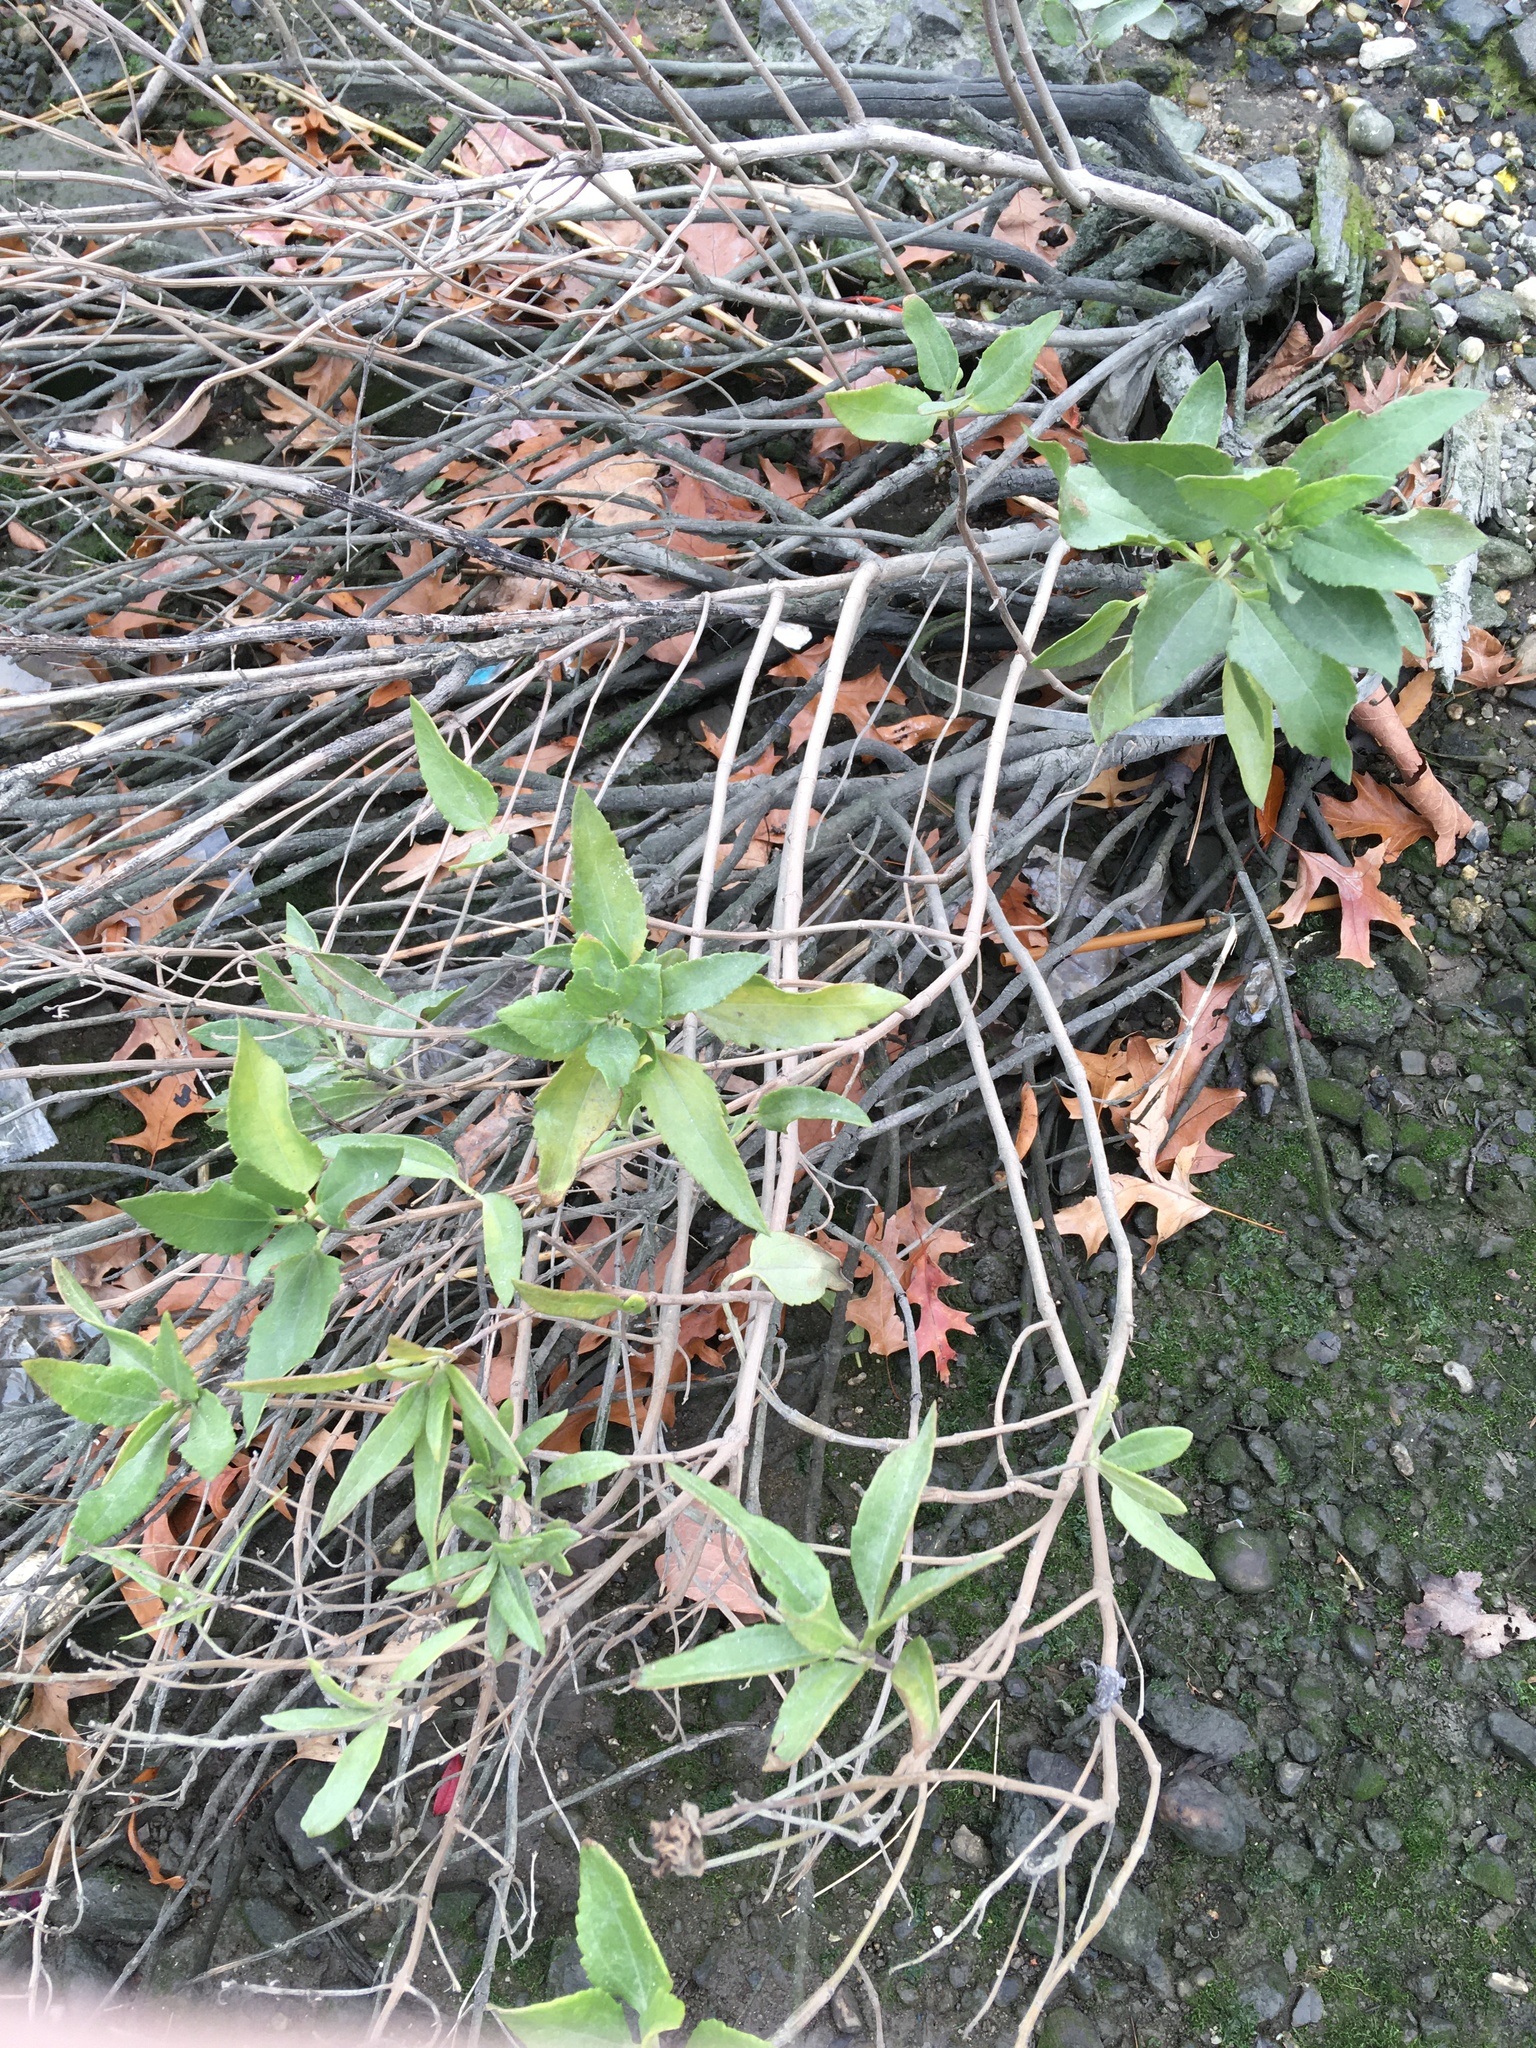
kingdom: Plantae
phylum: Tracheophyta
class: Magnoliopsida
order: Asterales
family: Asteraceae
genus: Iva
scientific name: Iva frutescens
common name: Big-leaved marsh-elder
